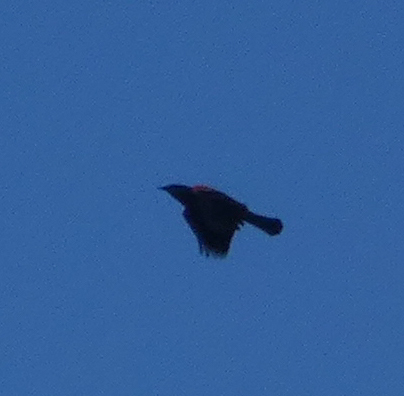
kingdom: Animalia
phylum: Chordata
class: Aves
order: Passeriformes
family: Icteridae
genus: Agelaius
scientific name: Agelaius phoeniceus
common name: Red-winged blackbird
